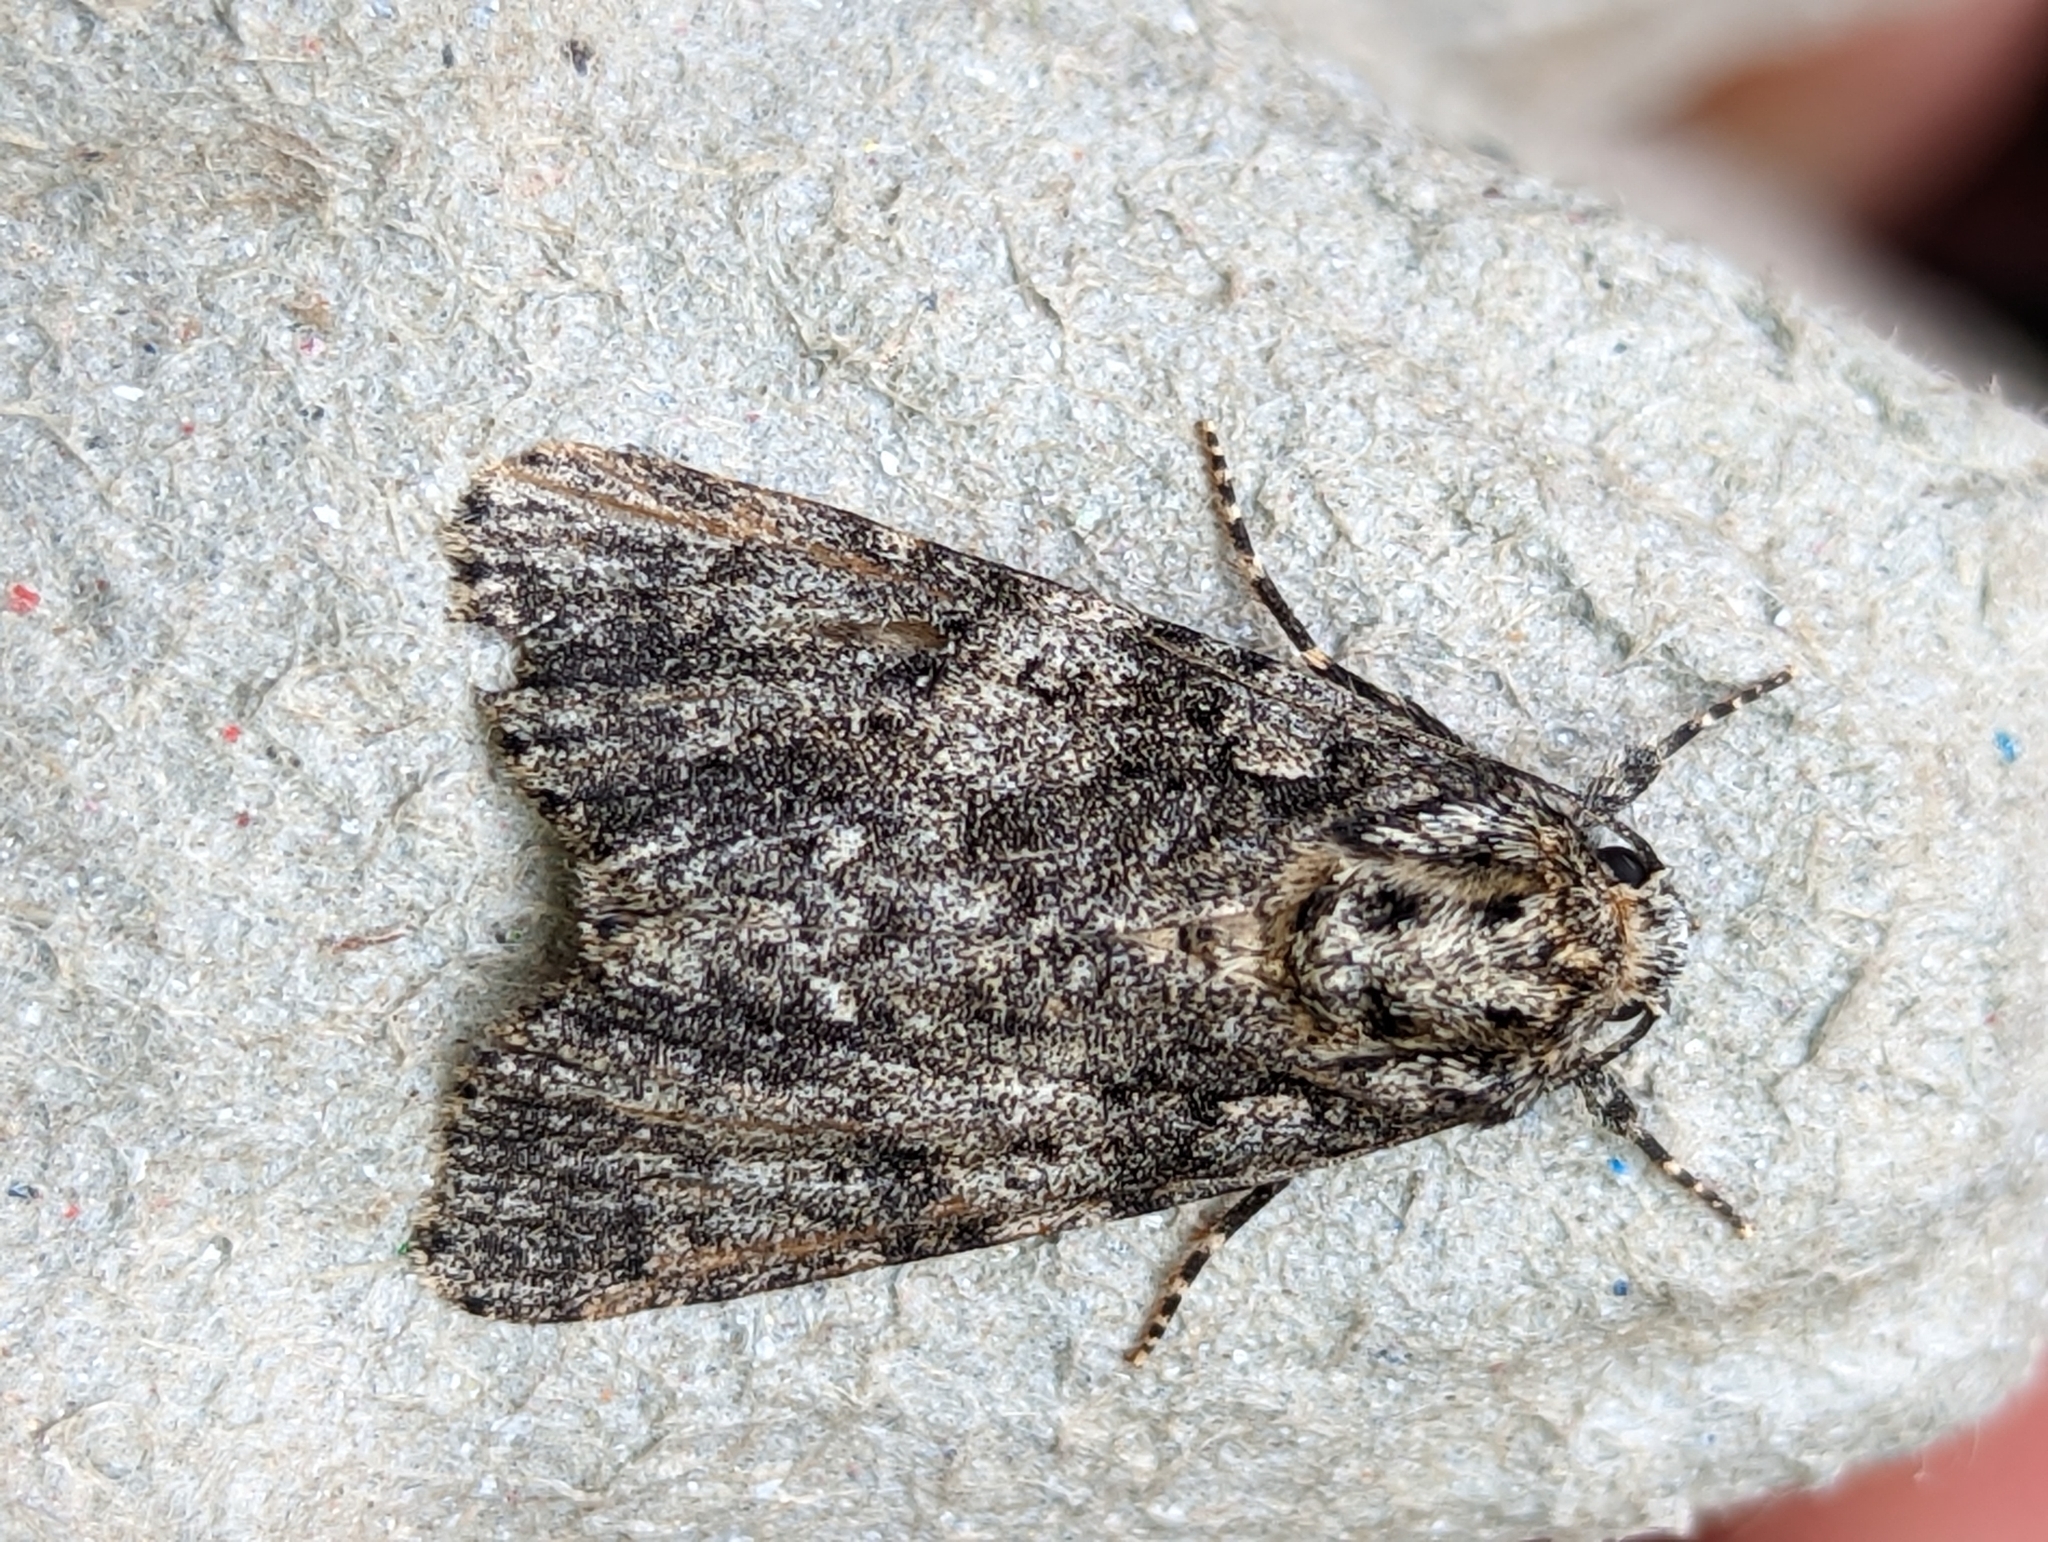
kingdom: Animalia
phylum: Arthropoda
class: Insecta
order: Lepidoptera
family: Noctuidae
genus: Acronicta
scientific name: Acronicta rumicis
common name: Knot grass
